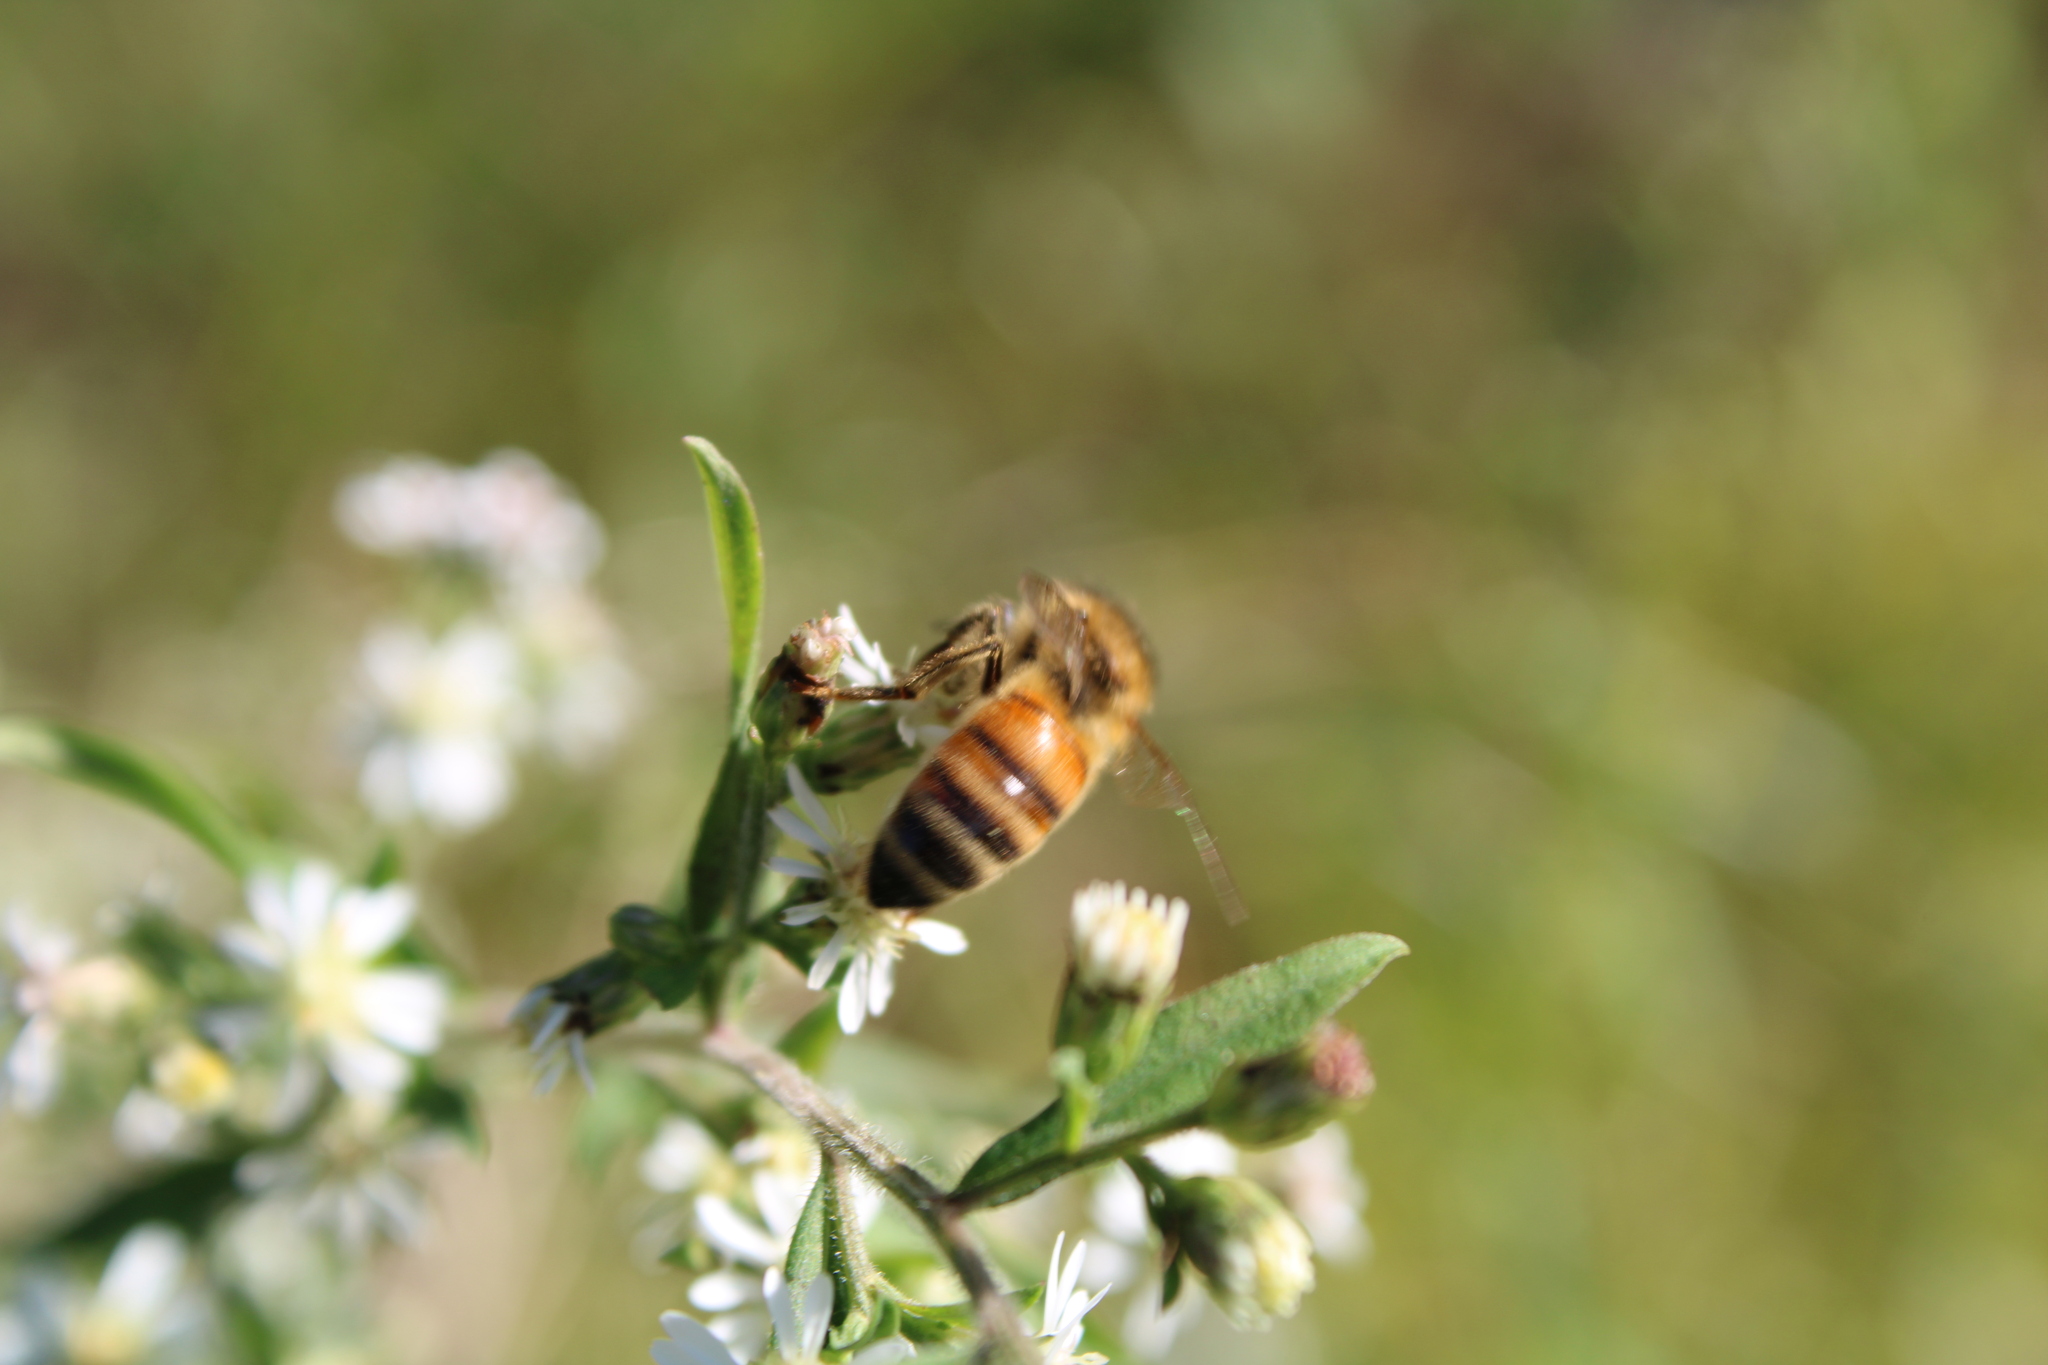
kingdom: Animalia
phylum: Arthropoda
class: Insecta
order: Hymenoptera
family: Apidae
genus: Apis
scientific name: Apis mellifera
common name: Honey bee
